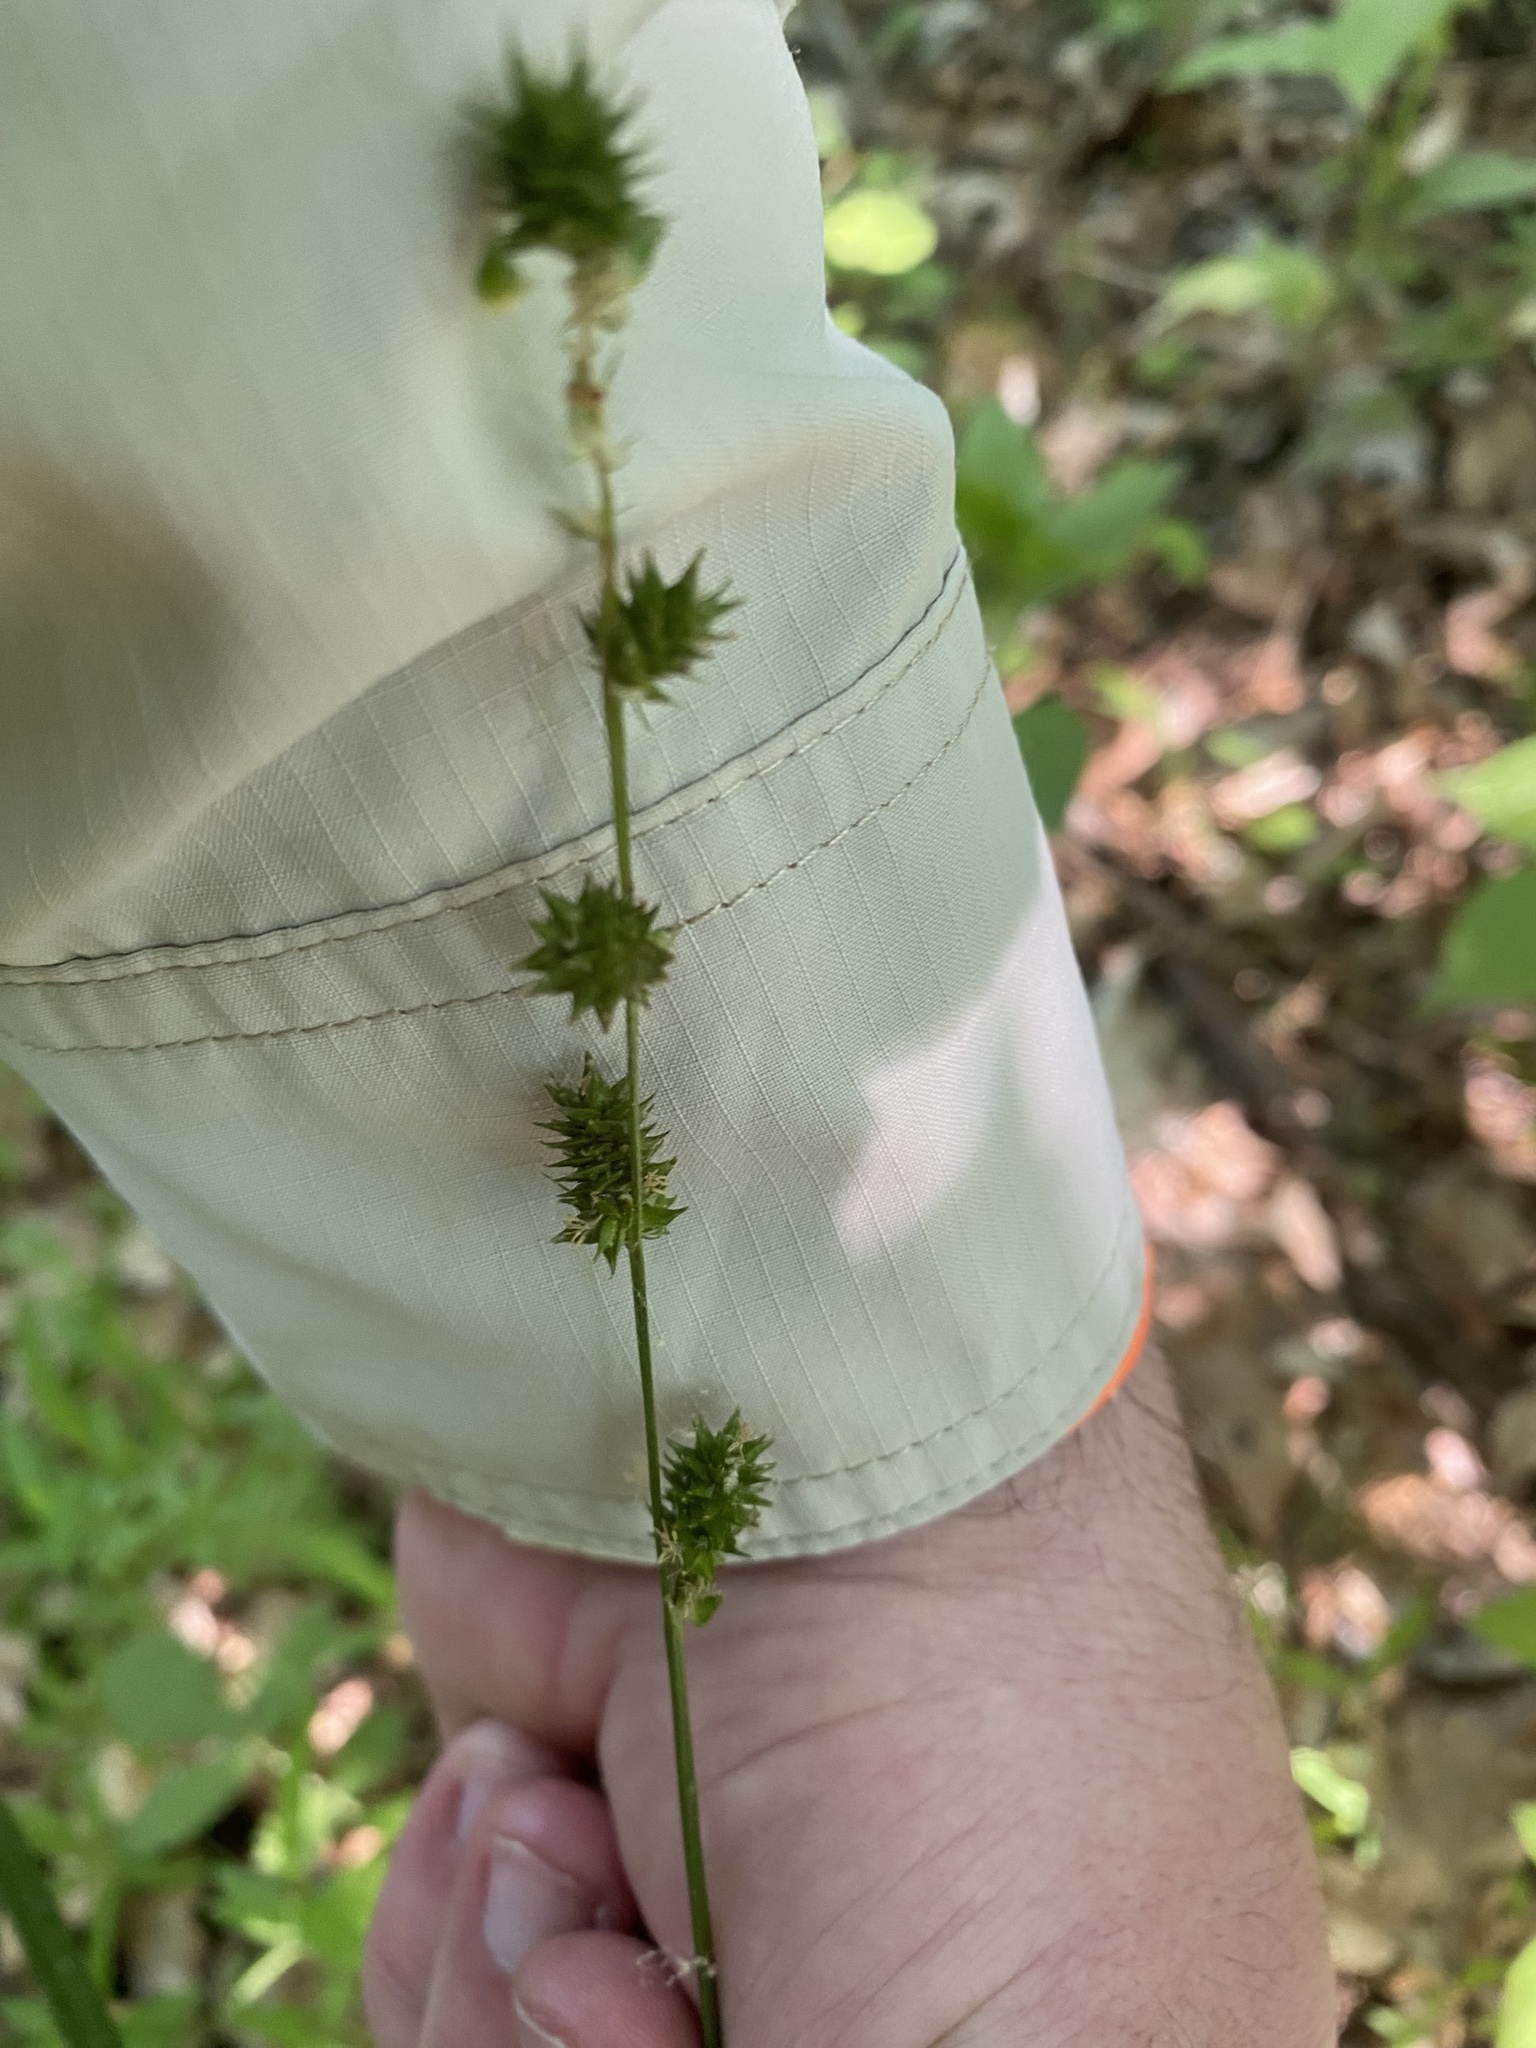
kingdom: Plantae
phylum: Tracheophyta
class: Liliopsida
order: Poales
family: Cyperaceae
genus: Carex
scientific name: Carex sparganioides
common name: Burreed sedge
